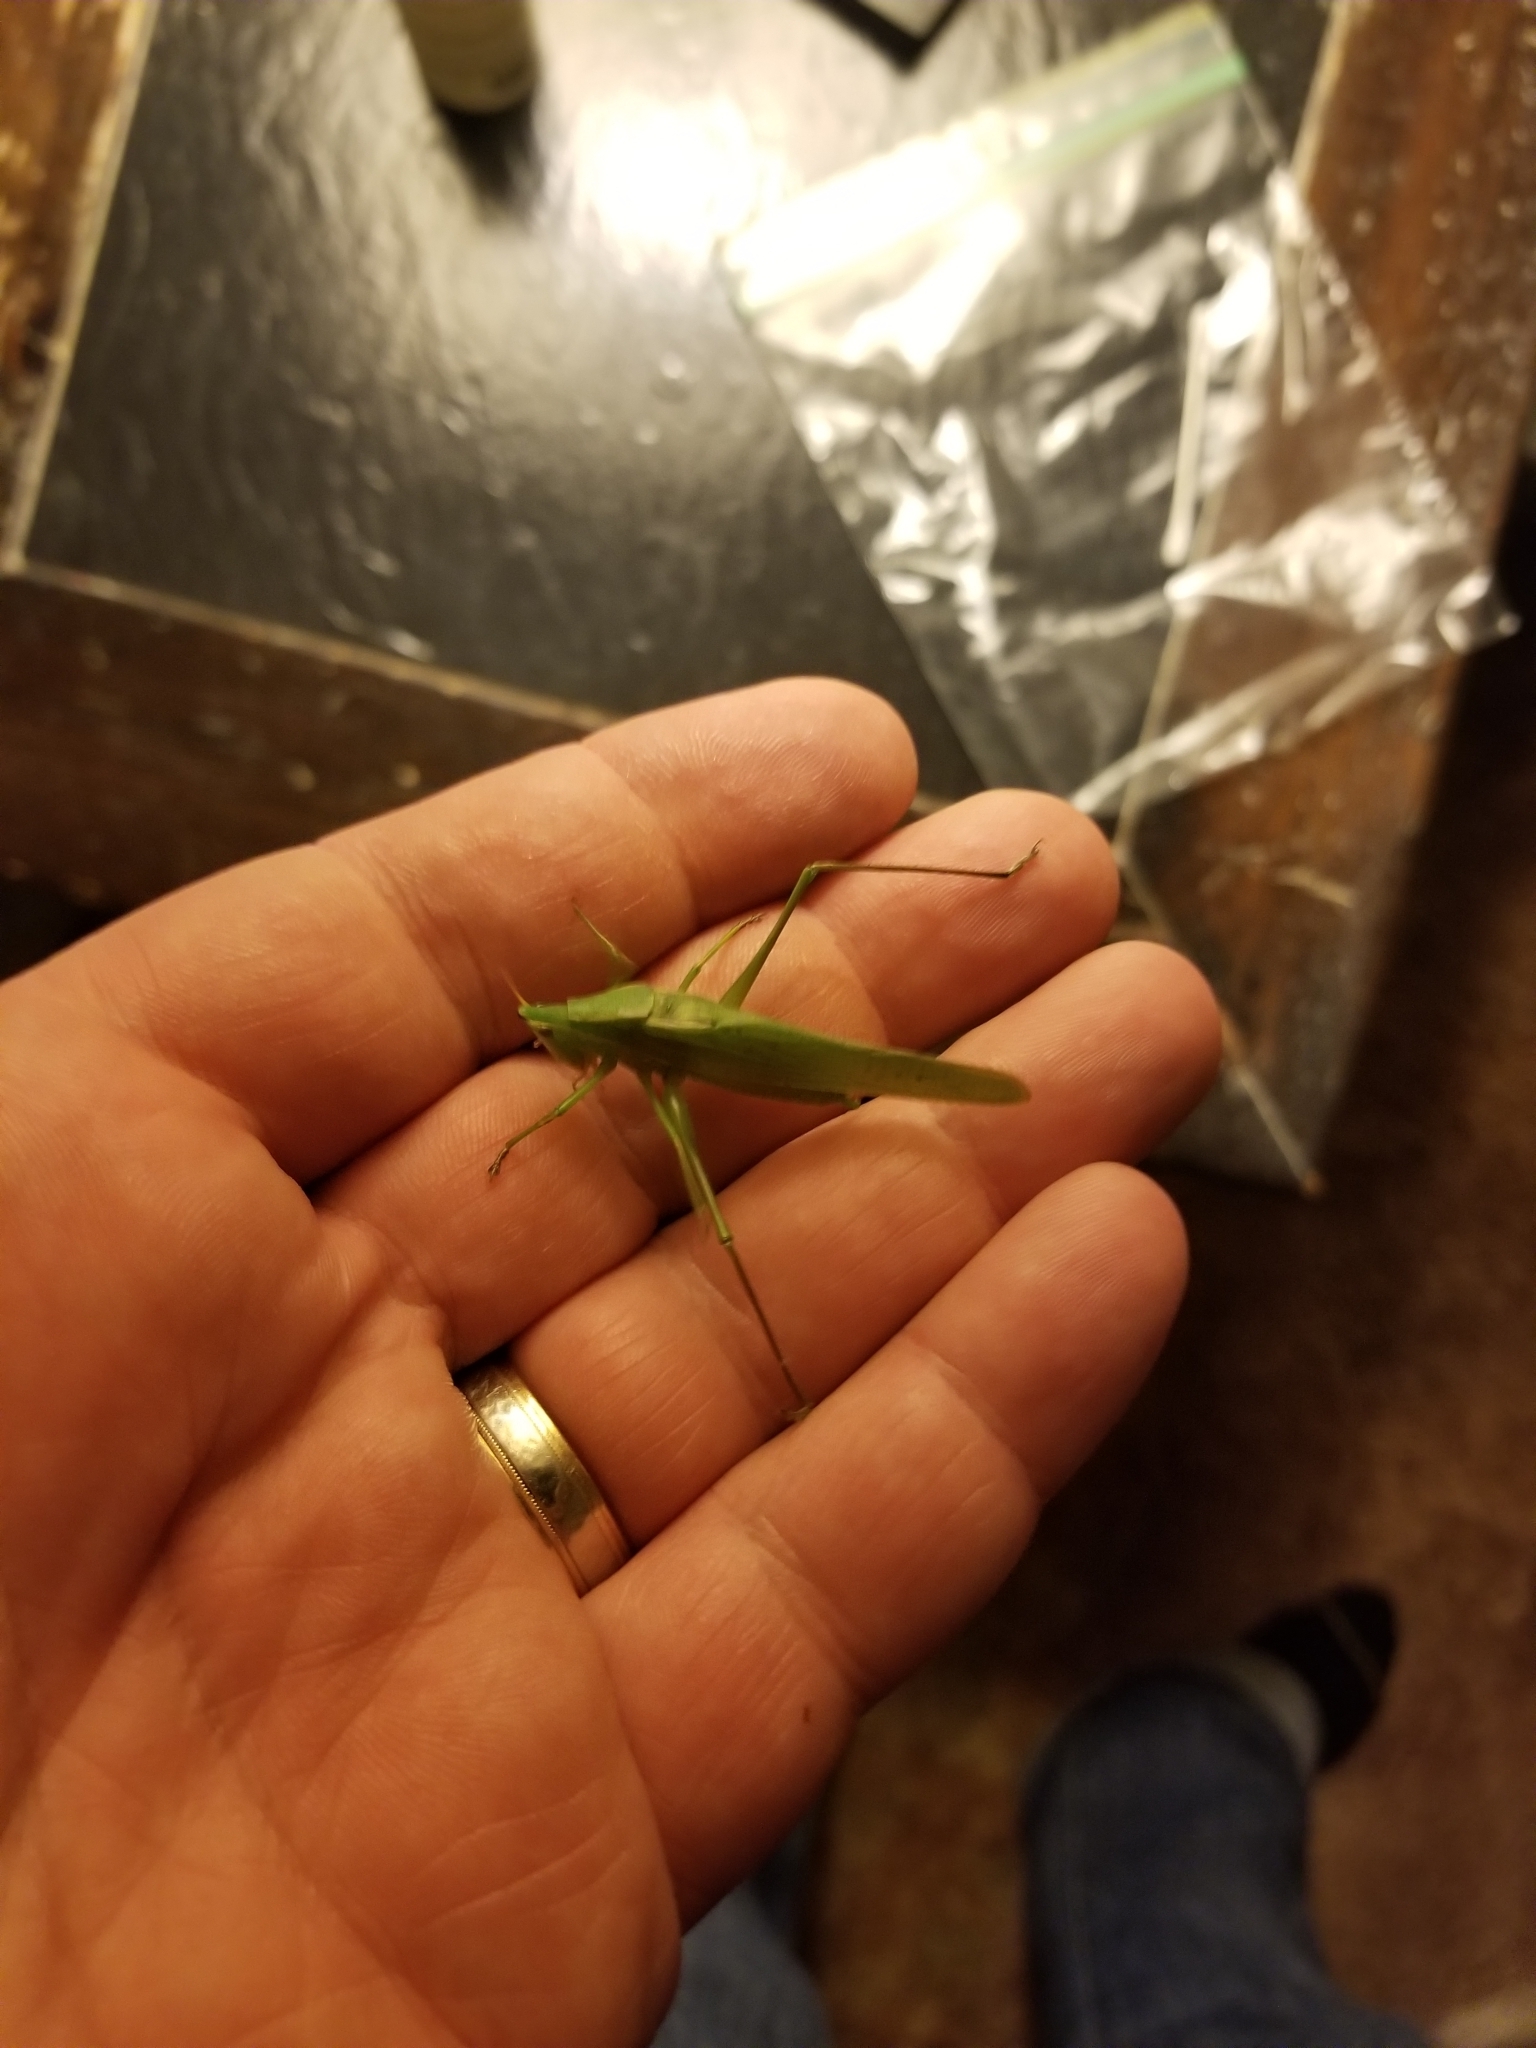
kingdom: Animalia
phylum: Arthropoda
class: Insecta
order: Orthoptera
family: Tettigoniidae
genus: Neoconocephalus
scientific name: Neoconocephalus retusus
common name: Round-tipped conehead
